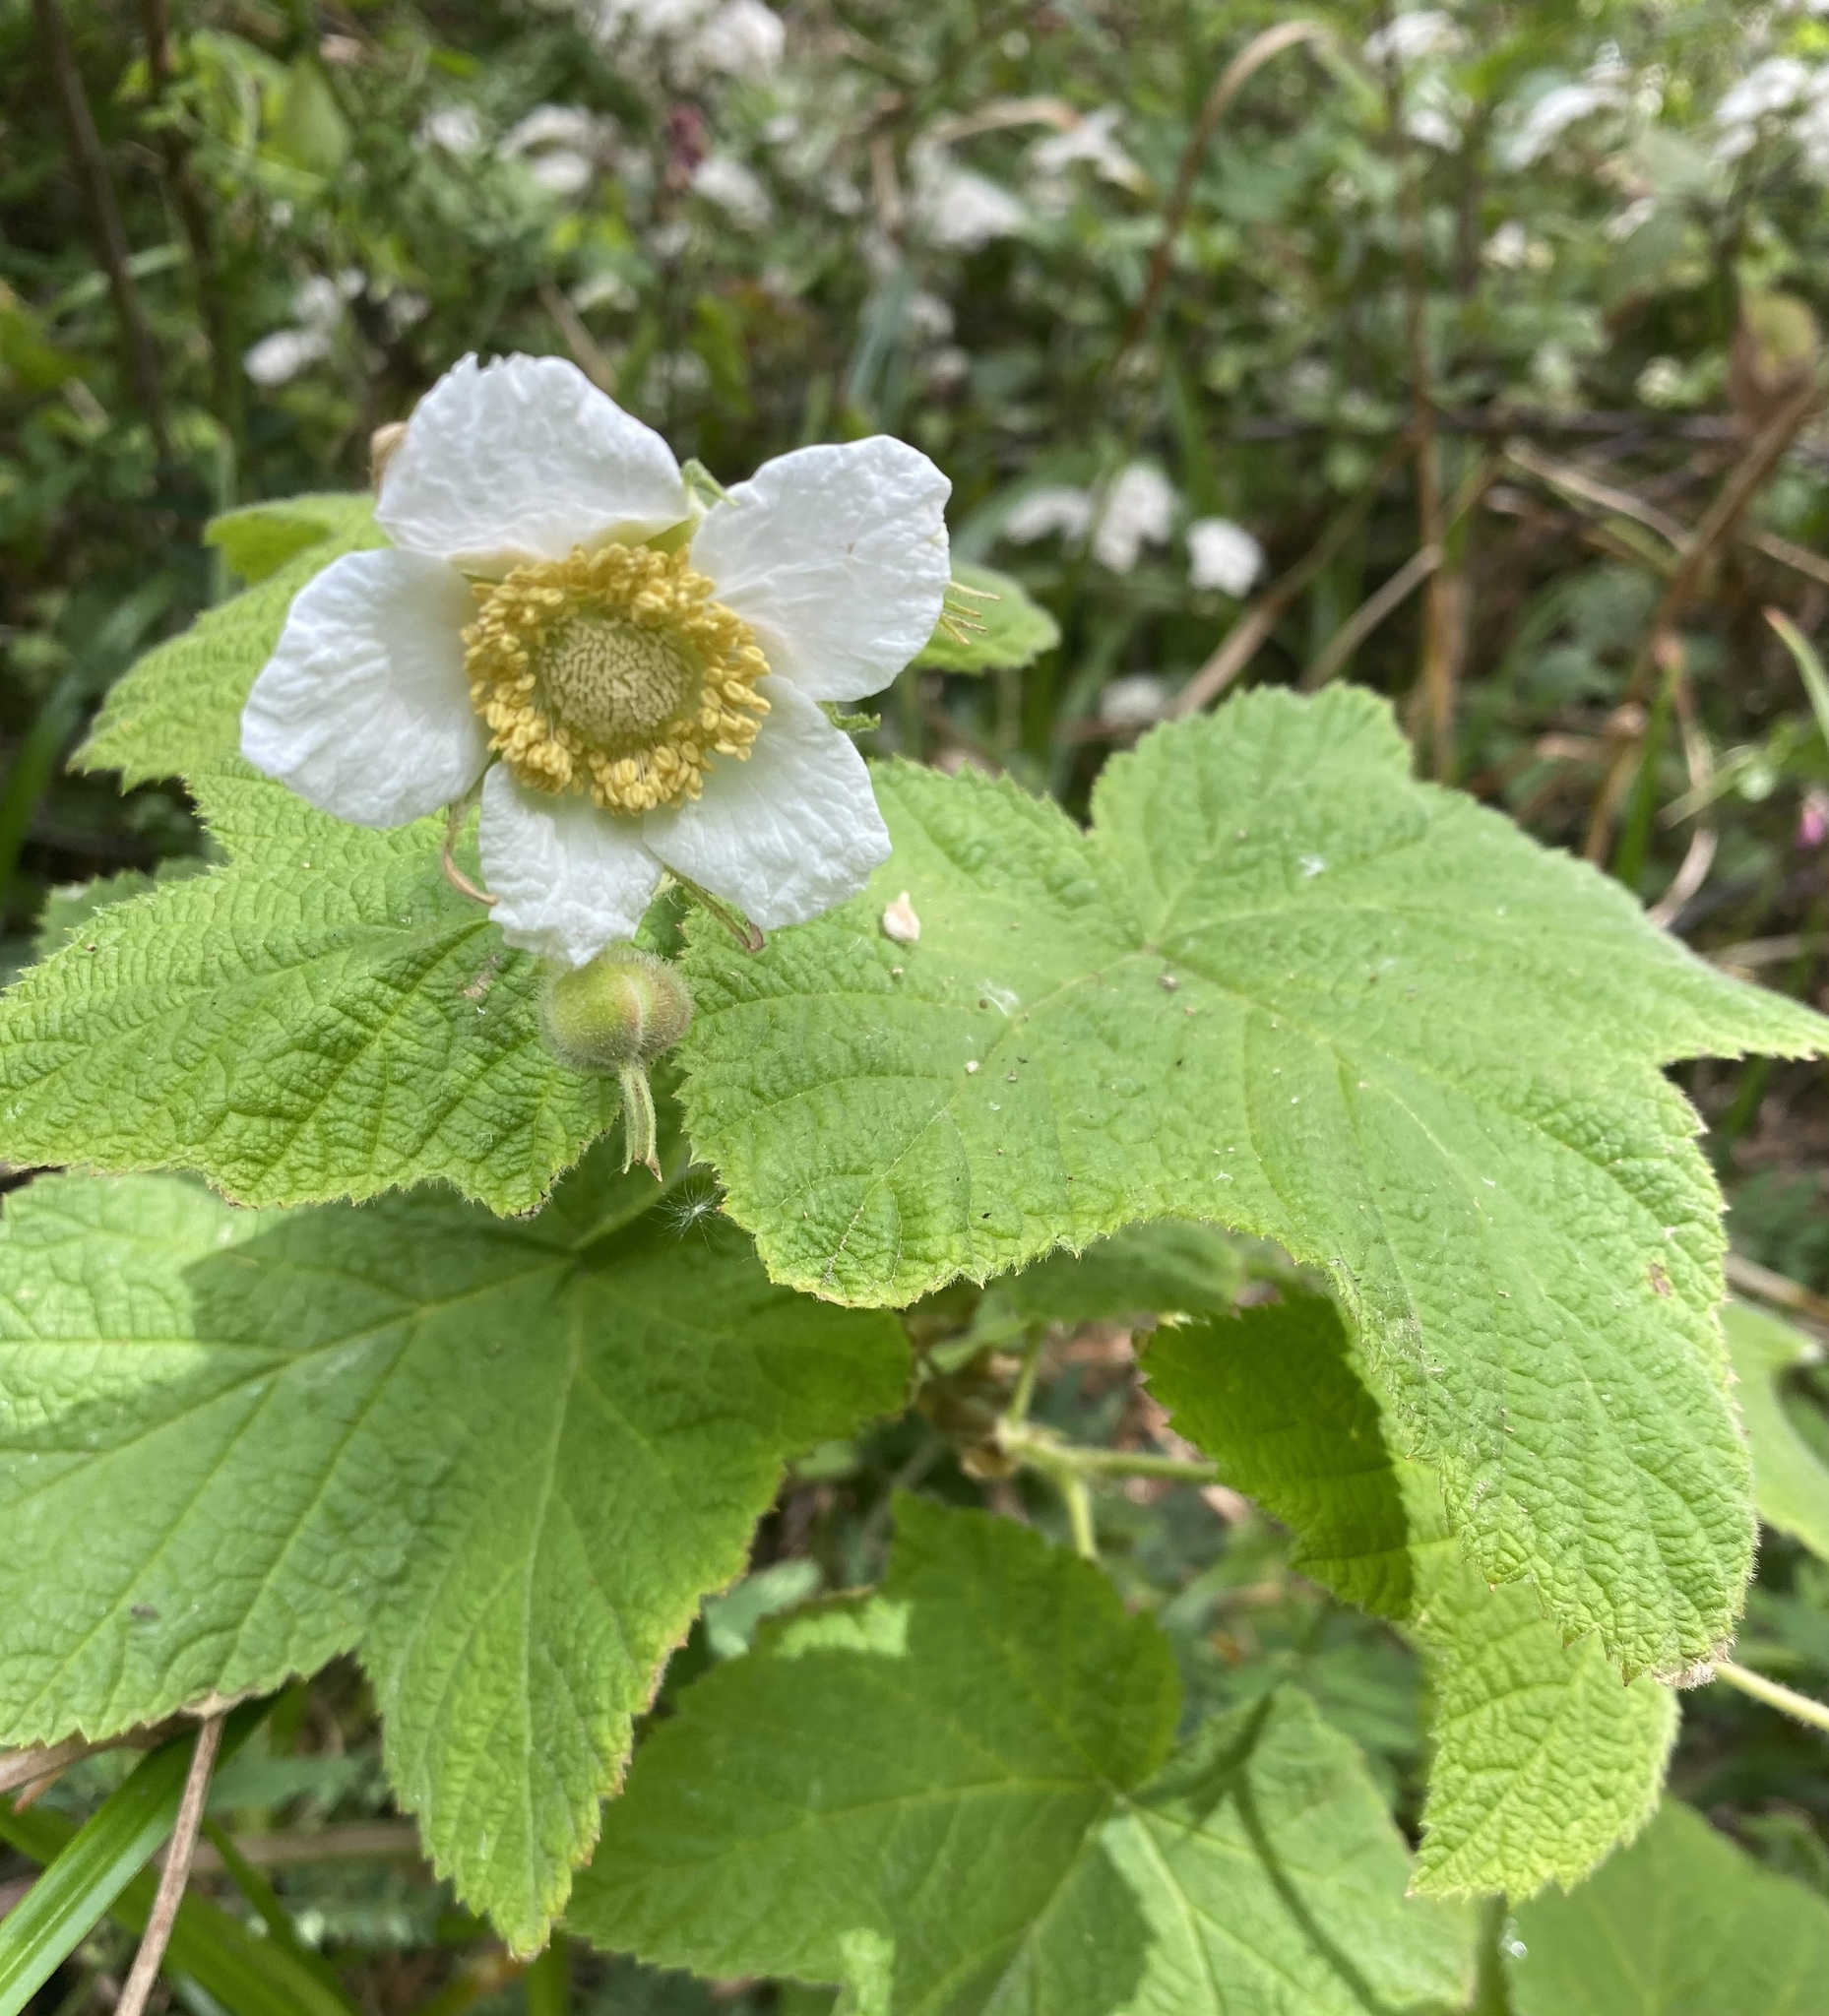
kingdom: Plantae
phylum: Tracheophyta
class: Magnoliopsida
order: Rosales
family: Rosaceae
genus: Rubus
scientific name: Rubus parviflorus
